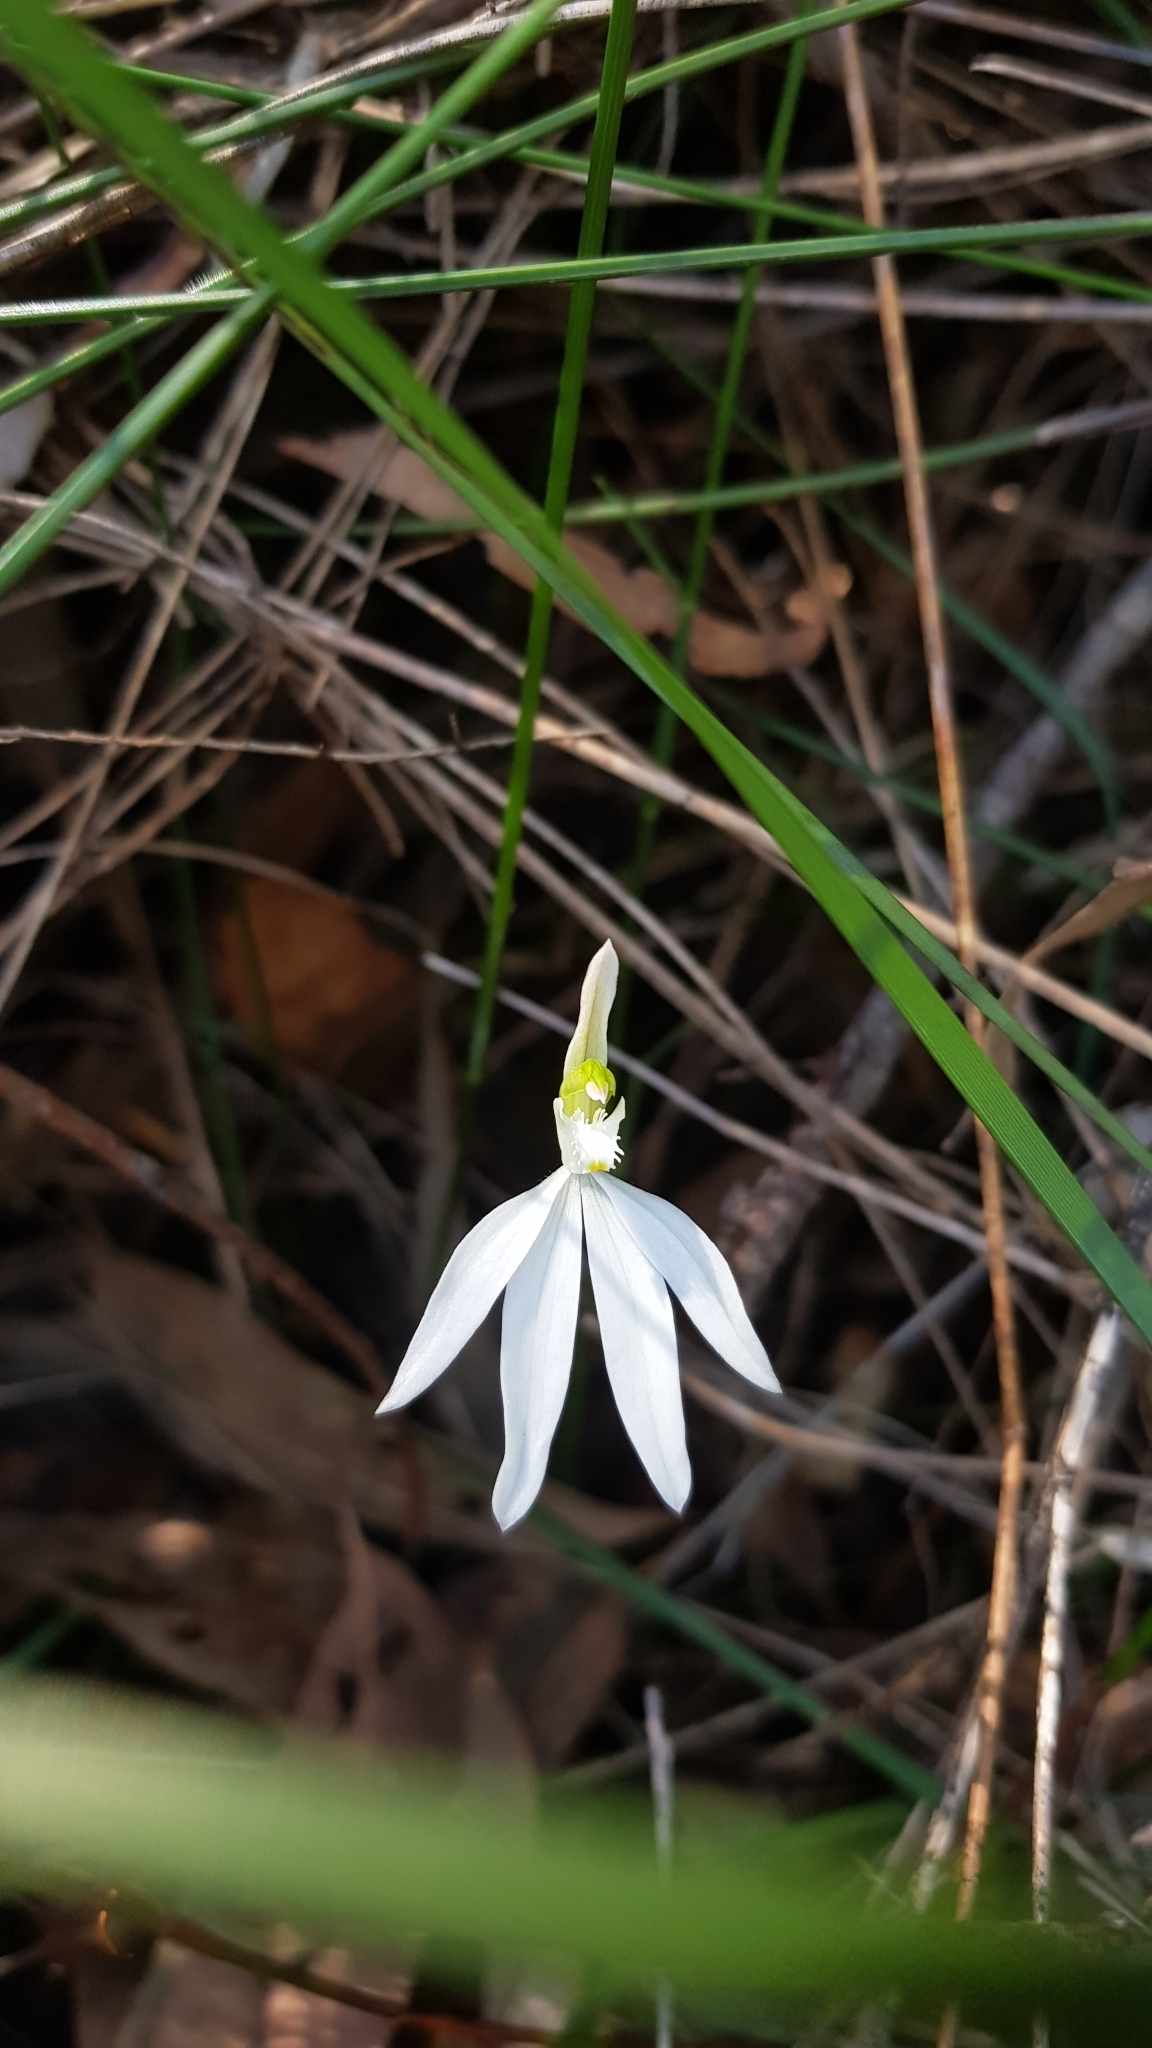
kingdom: Plantae
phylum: Tracheophyta
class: Liliopsida
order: Asparagales
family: Orchidaceae
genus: Caladenia
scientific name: Caladenia catenata
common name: White caladenia
